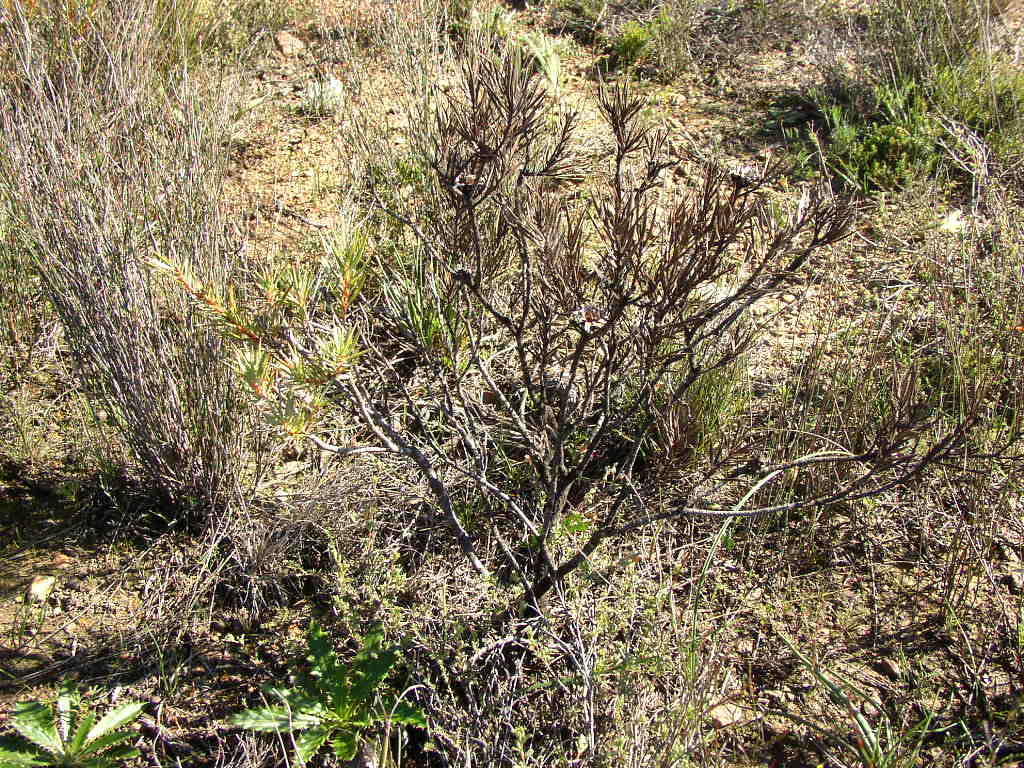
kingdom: Plantae
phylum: Tracheophyta
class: Magnoliopsida
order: Proteales
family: Proteaceae
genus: Protea
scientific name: Protea mucronifolia
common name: Dagger-leaf sugarbush
